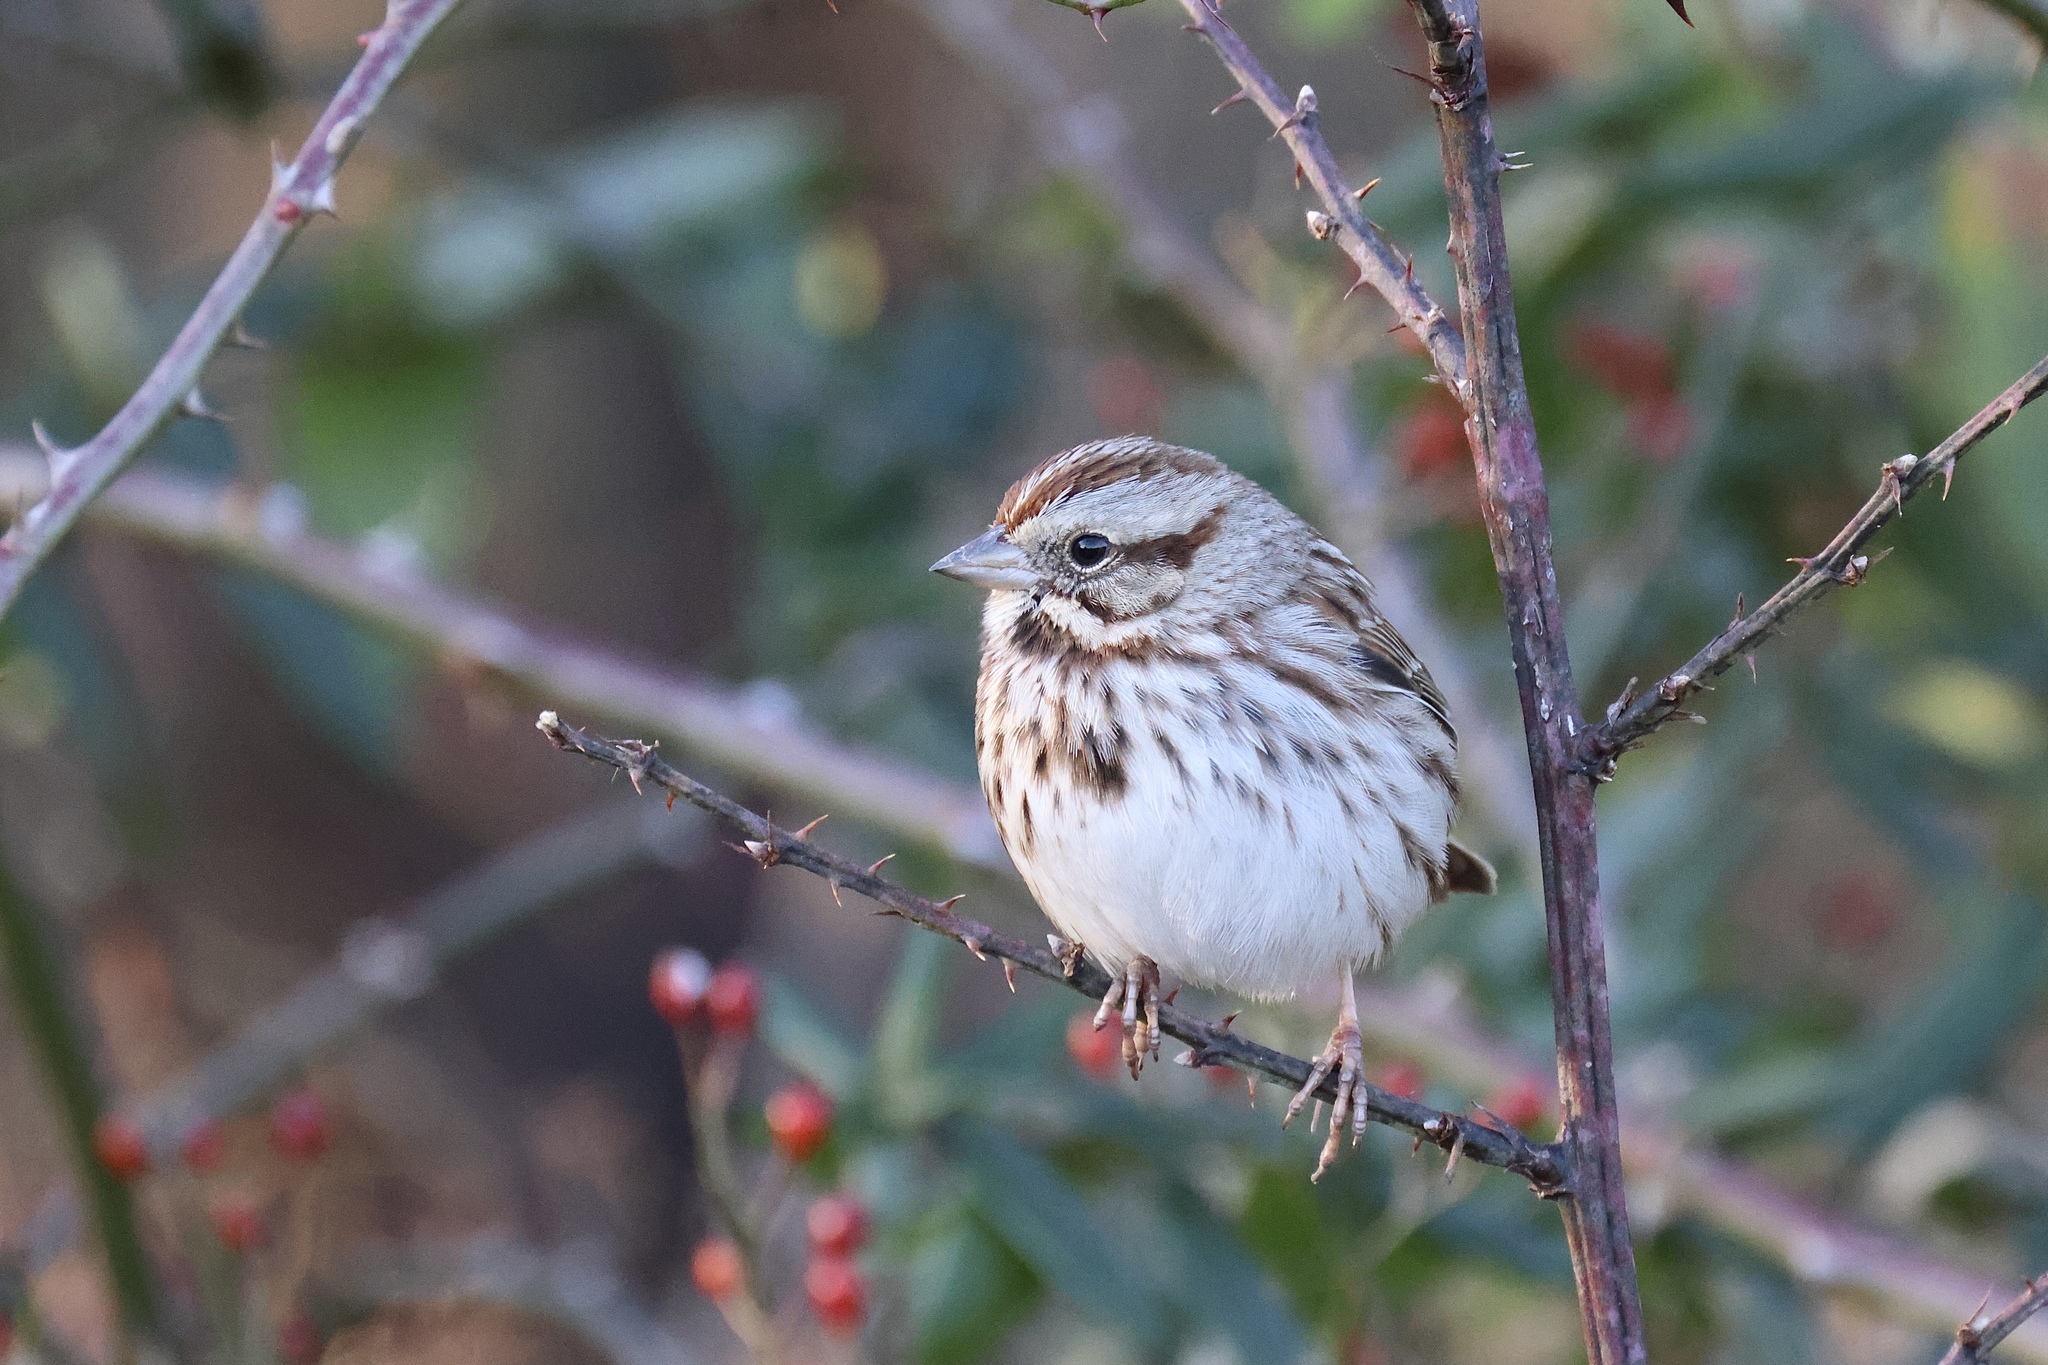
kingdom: Animalia
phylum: Chordata
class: Aves
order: Passeriformes
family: Passerellidae
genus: Melospiza
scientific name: Melospiza melodia
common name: Song sparrow
